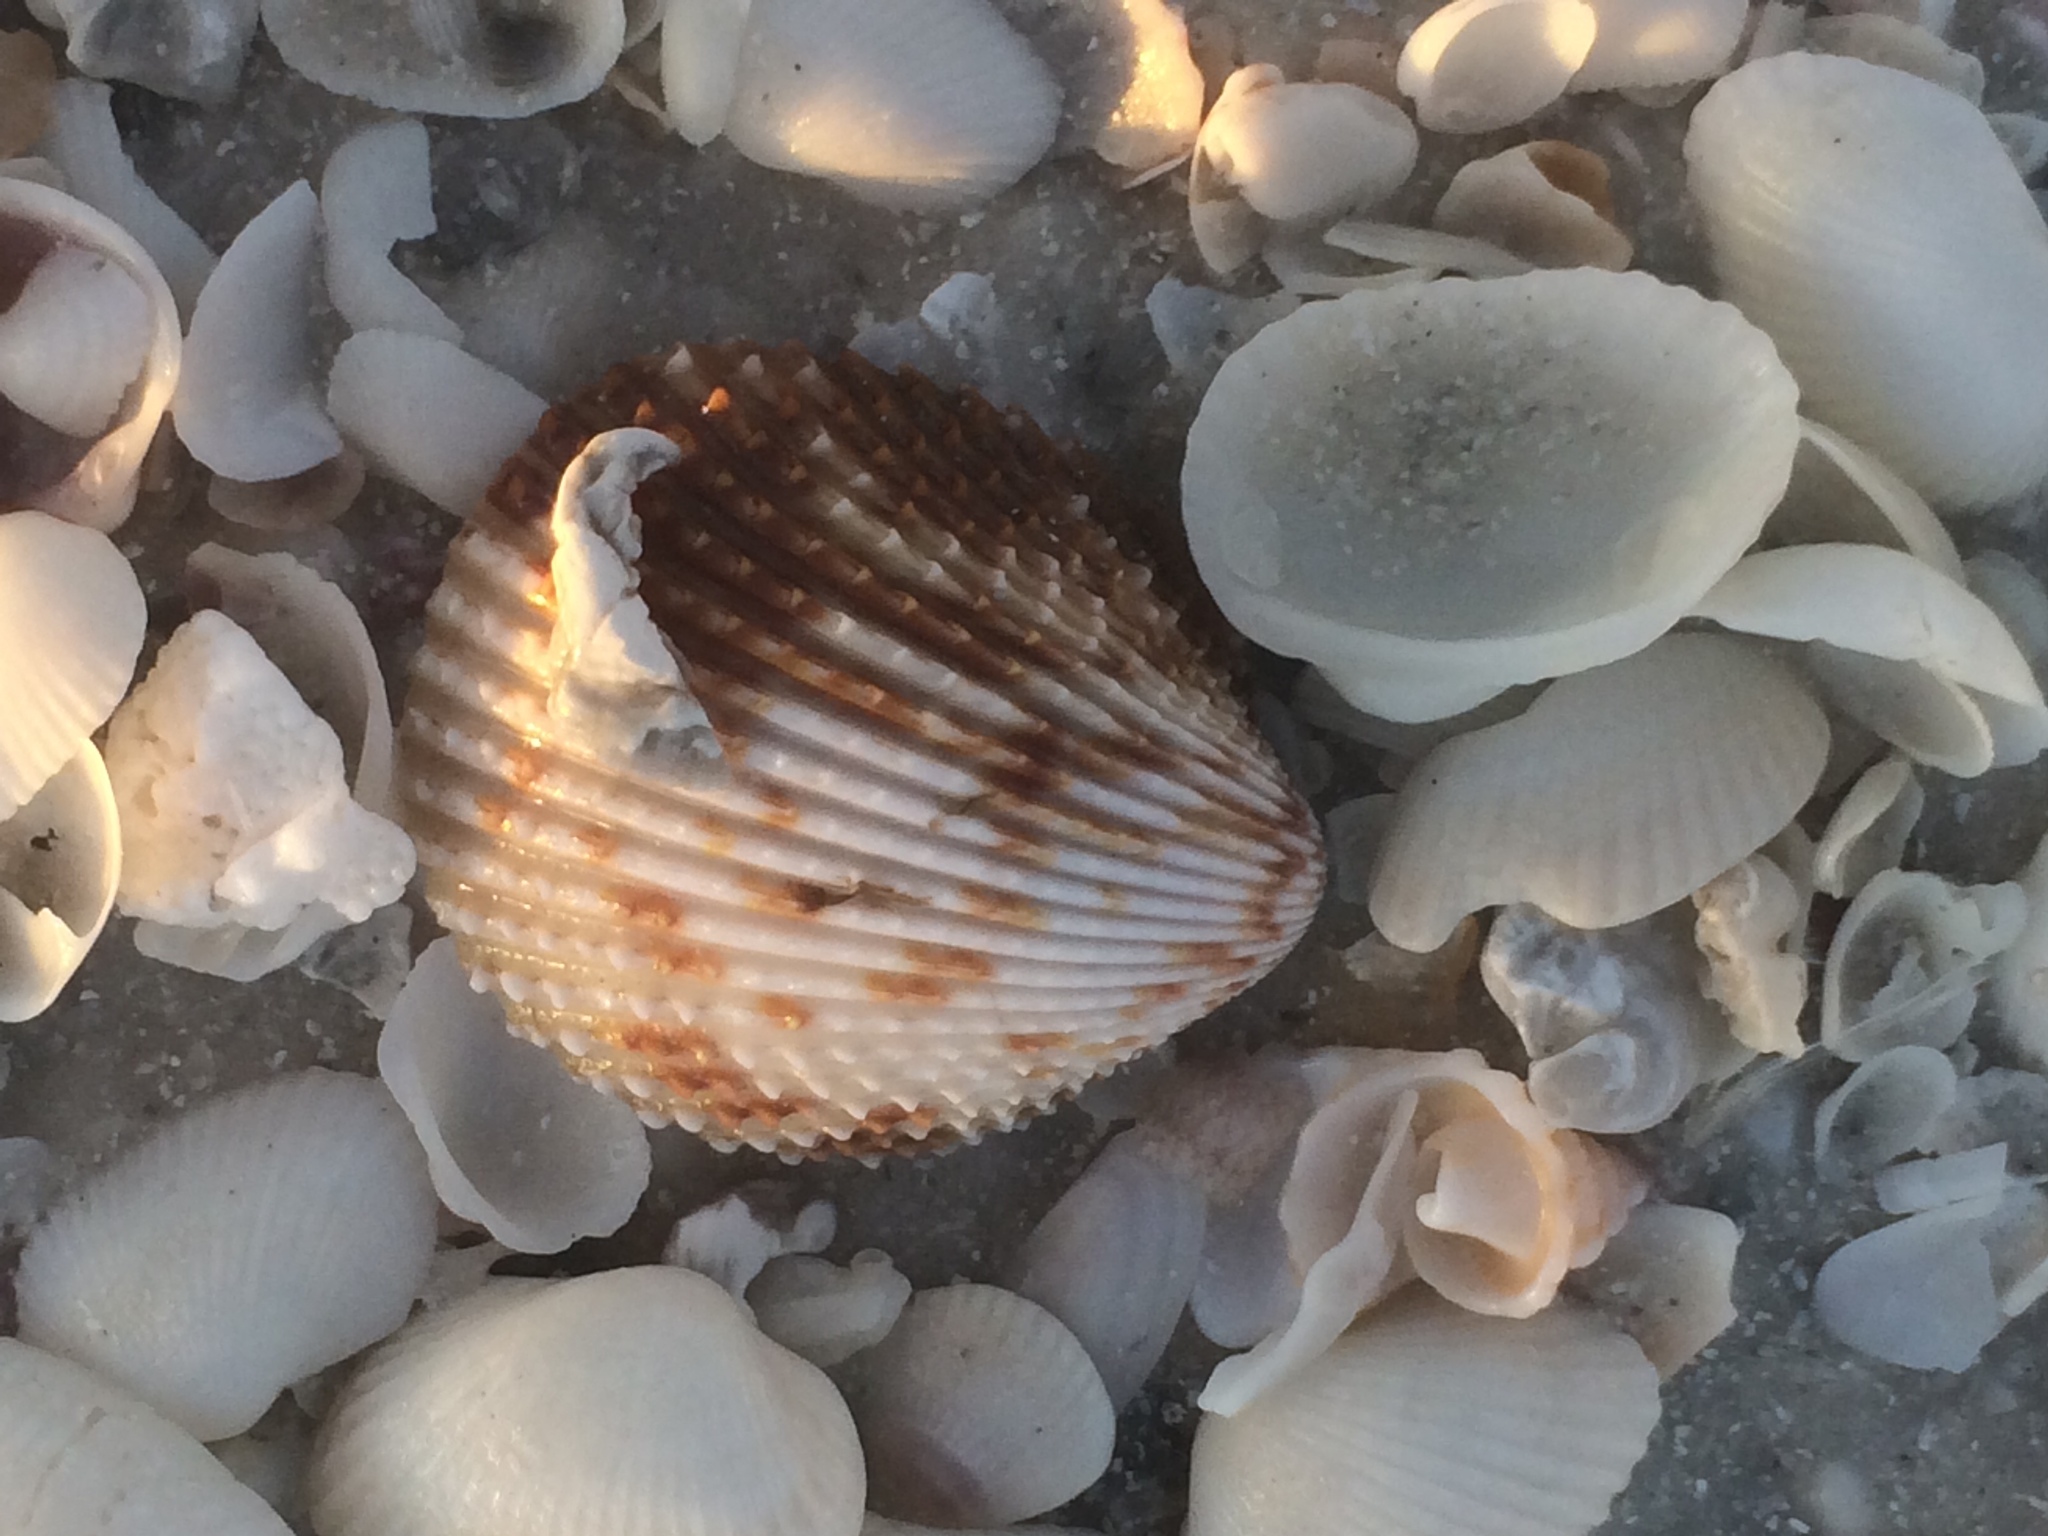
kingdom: Animalia
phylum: Mollusca
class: Bivalvia
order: Cardiida
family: Cardiidae
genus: Trachycardium
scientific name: Trachycardium egmontianum
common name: Florida pricklycockle
